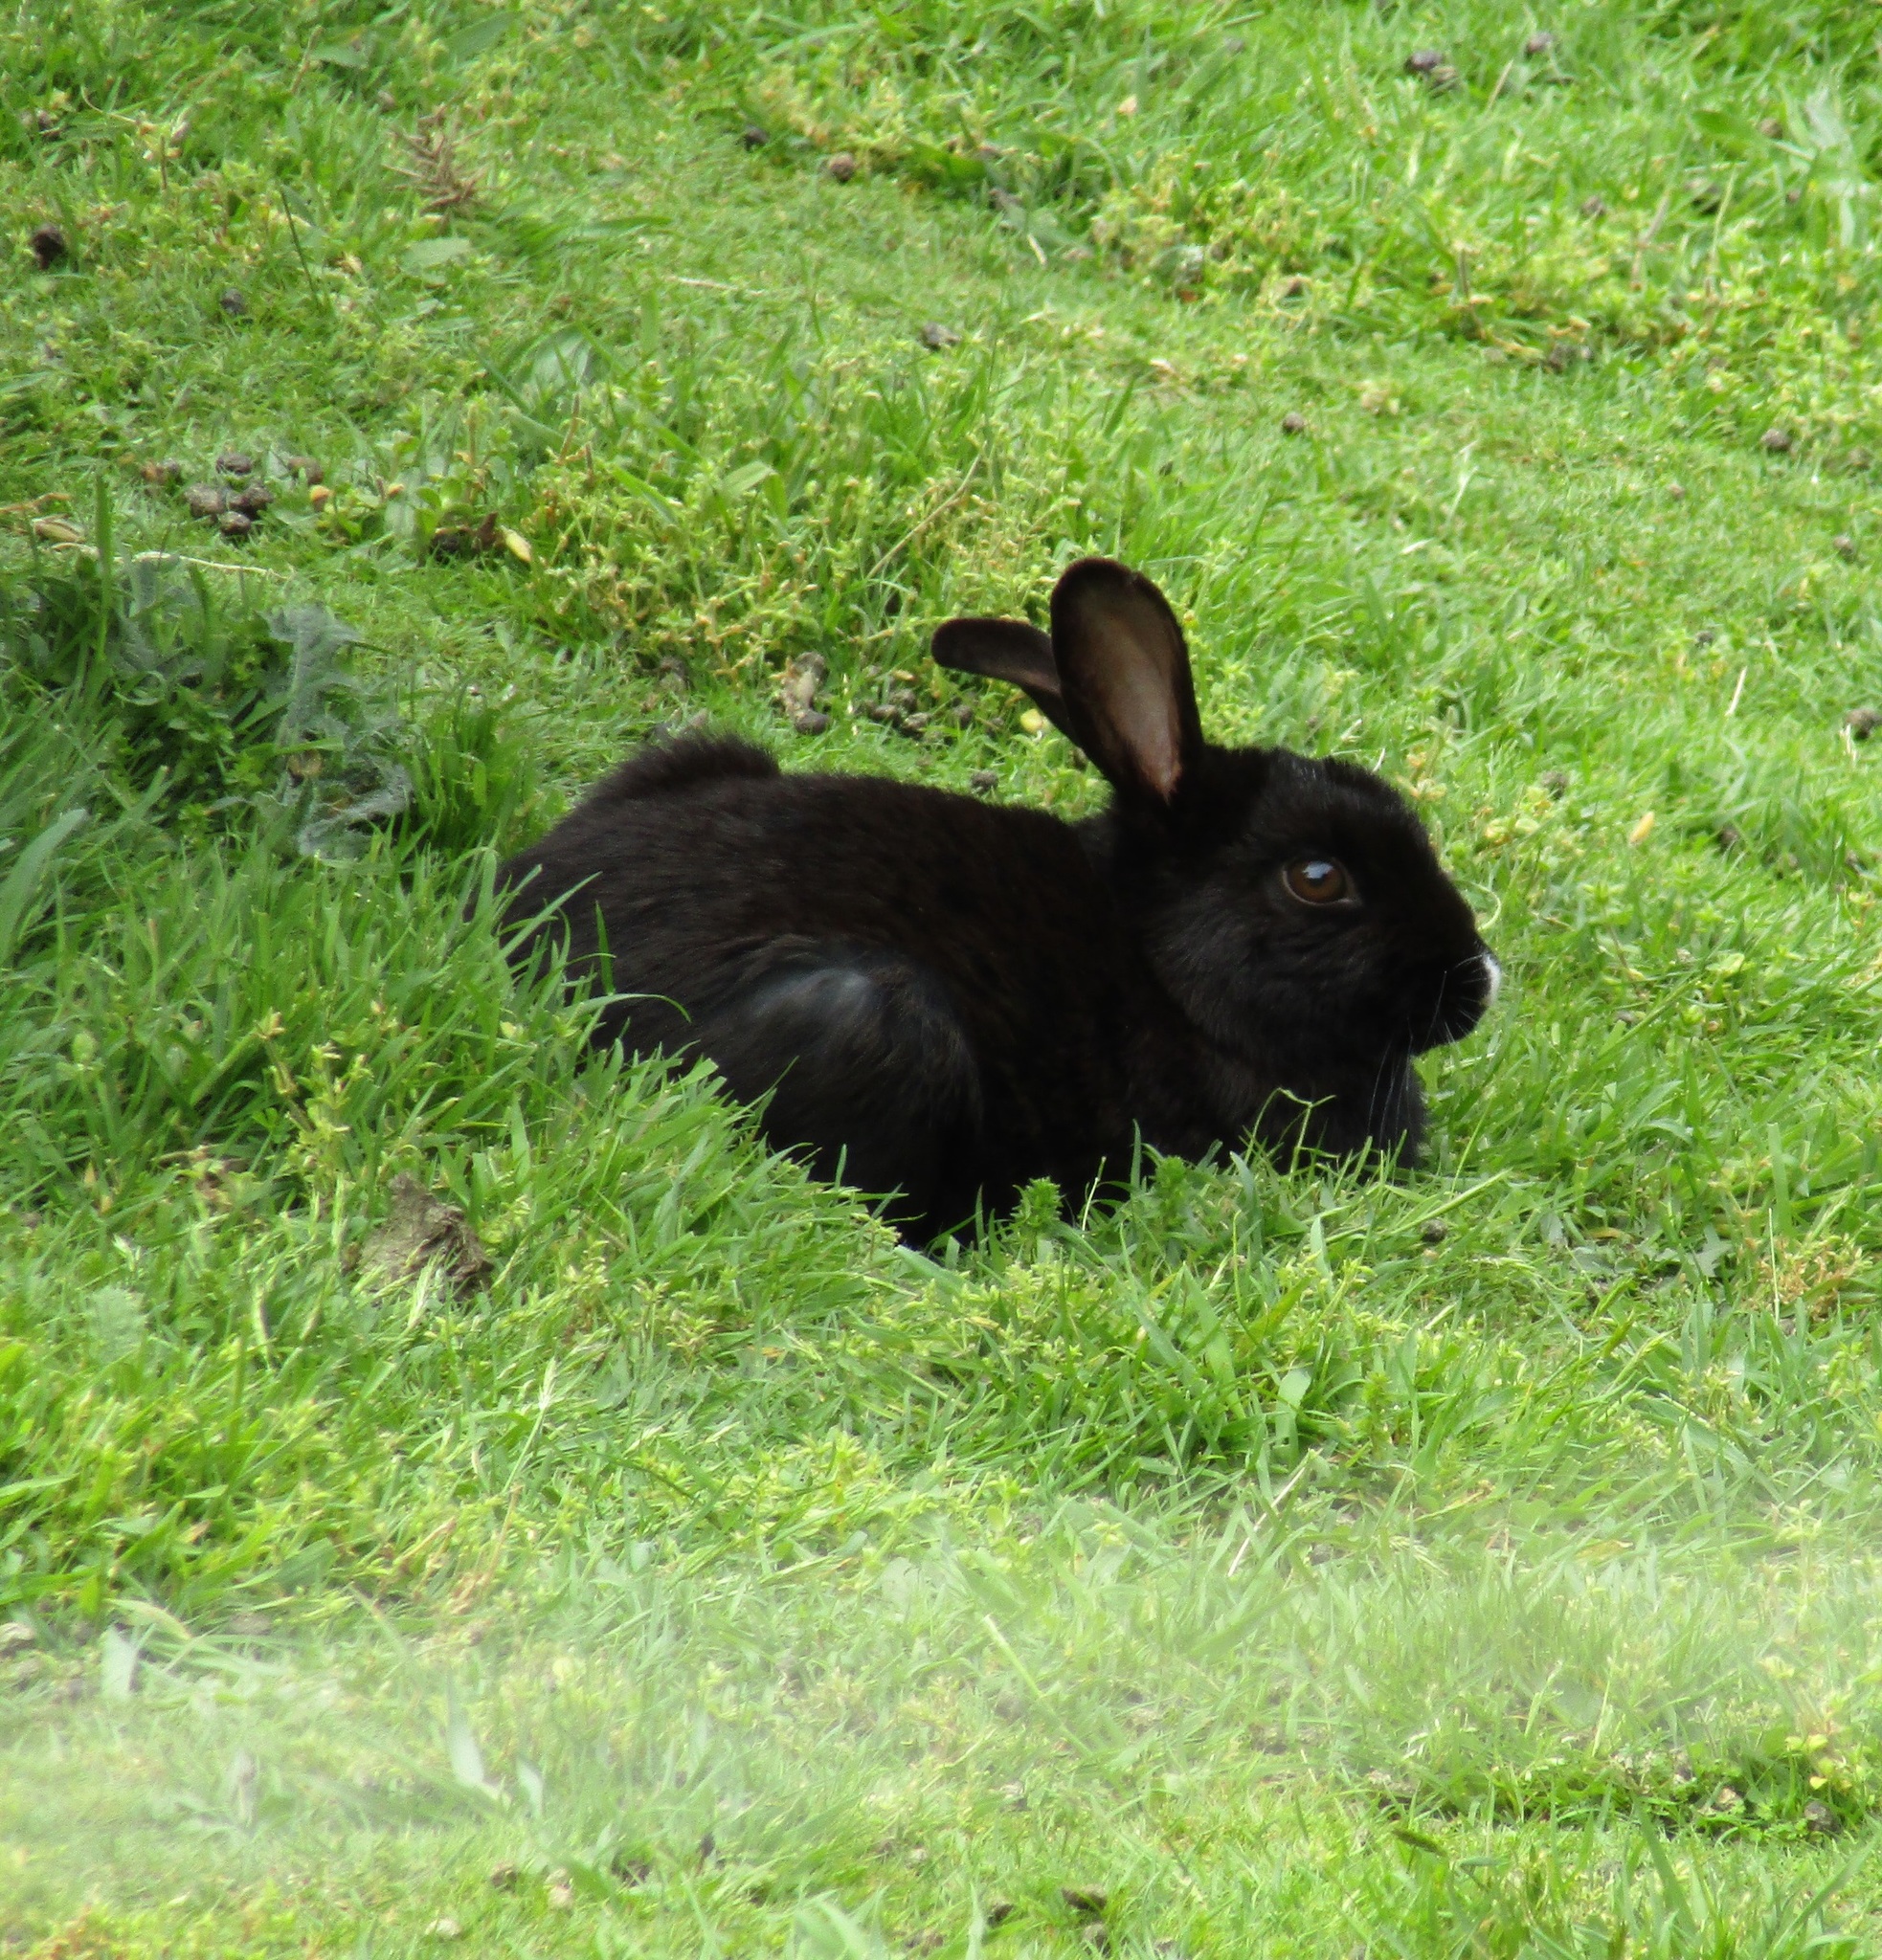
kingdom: Animalia
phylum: Chordata
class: Mammalia
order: Lagomorpha
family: Leporidae
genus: Oryctolagus
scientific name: Oryctolagus cuniculus
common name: European rabbit
